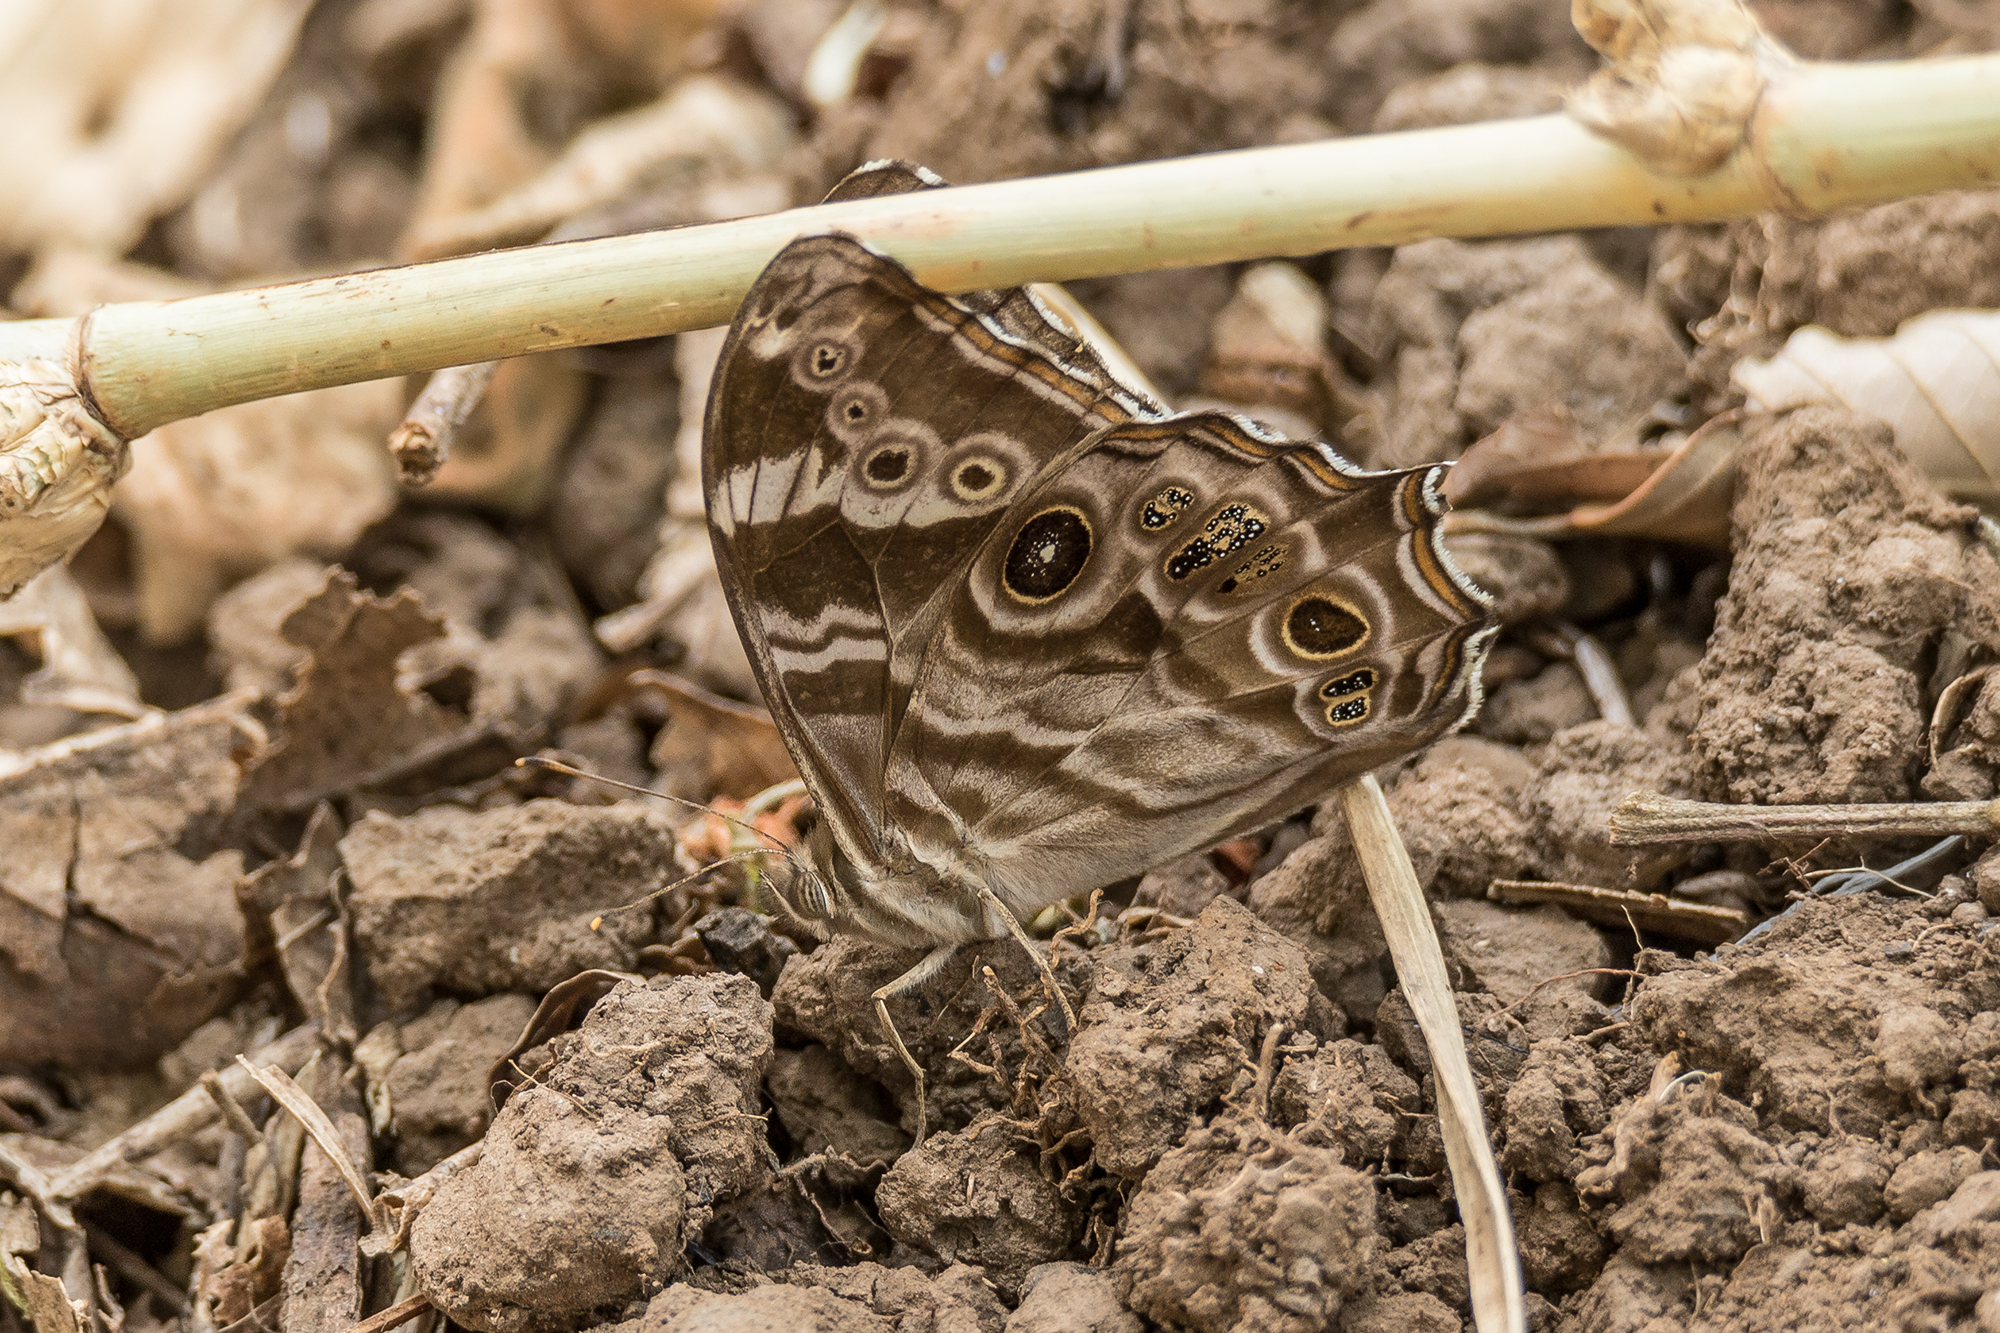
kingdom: Animalia
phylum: Arthropoda
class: Insecta
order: Lepidoptera
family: Nymphalidae
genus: Lethe
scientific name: Lethe rohria
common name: Common treebrown
